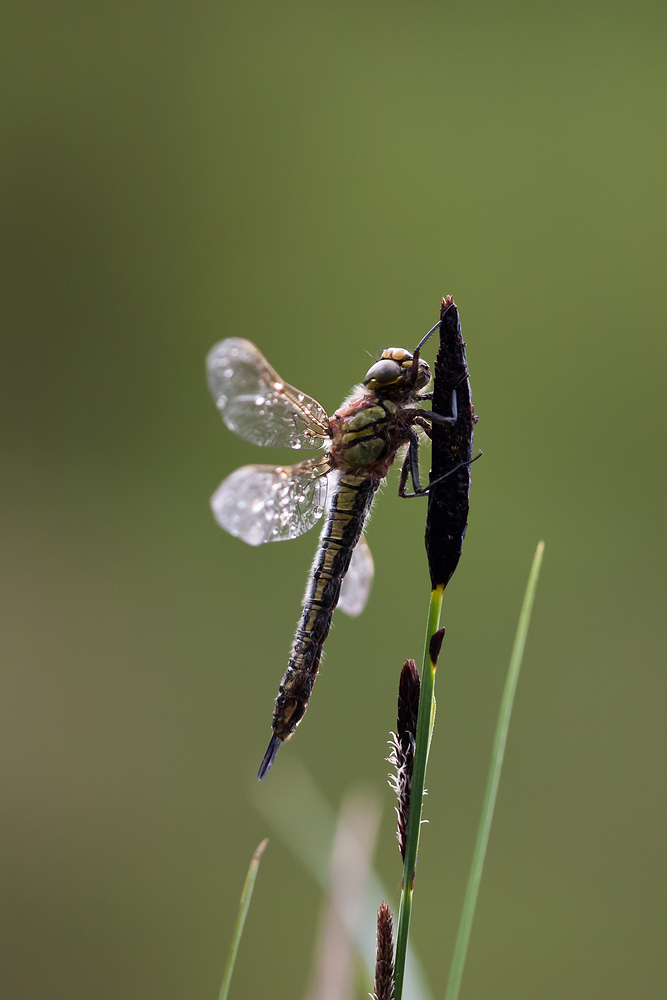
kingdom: Animalia
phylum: Arthropoda
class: Insecta
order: Odonata
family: Aeshnidae
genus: Brachytron
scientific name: Brachytron pratense
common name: Hairy hawker
